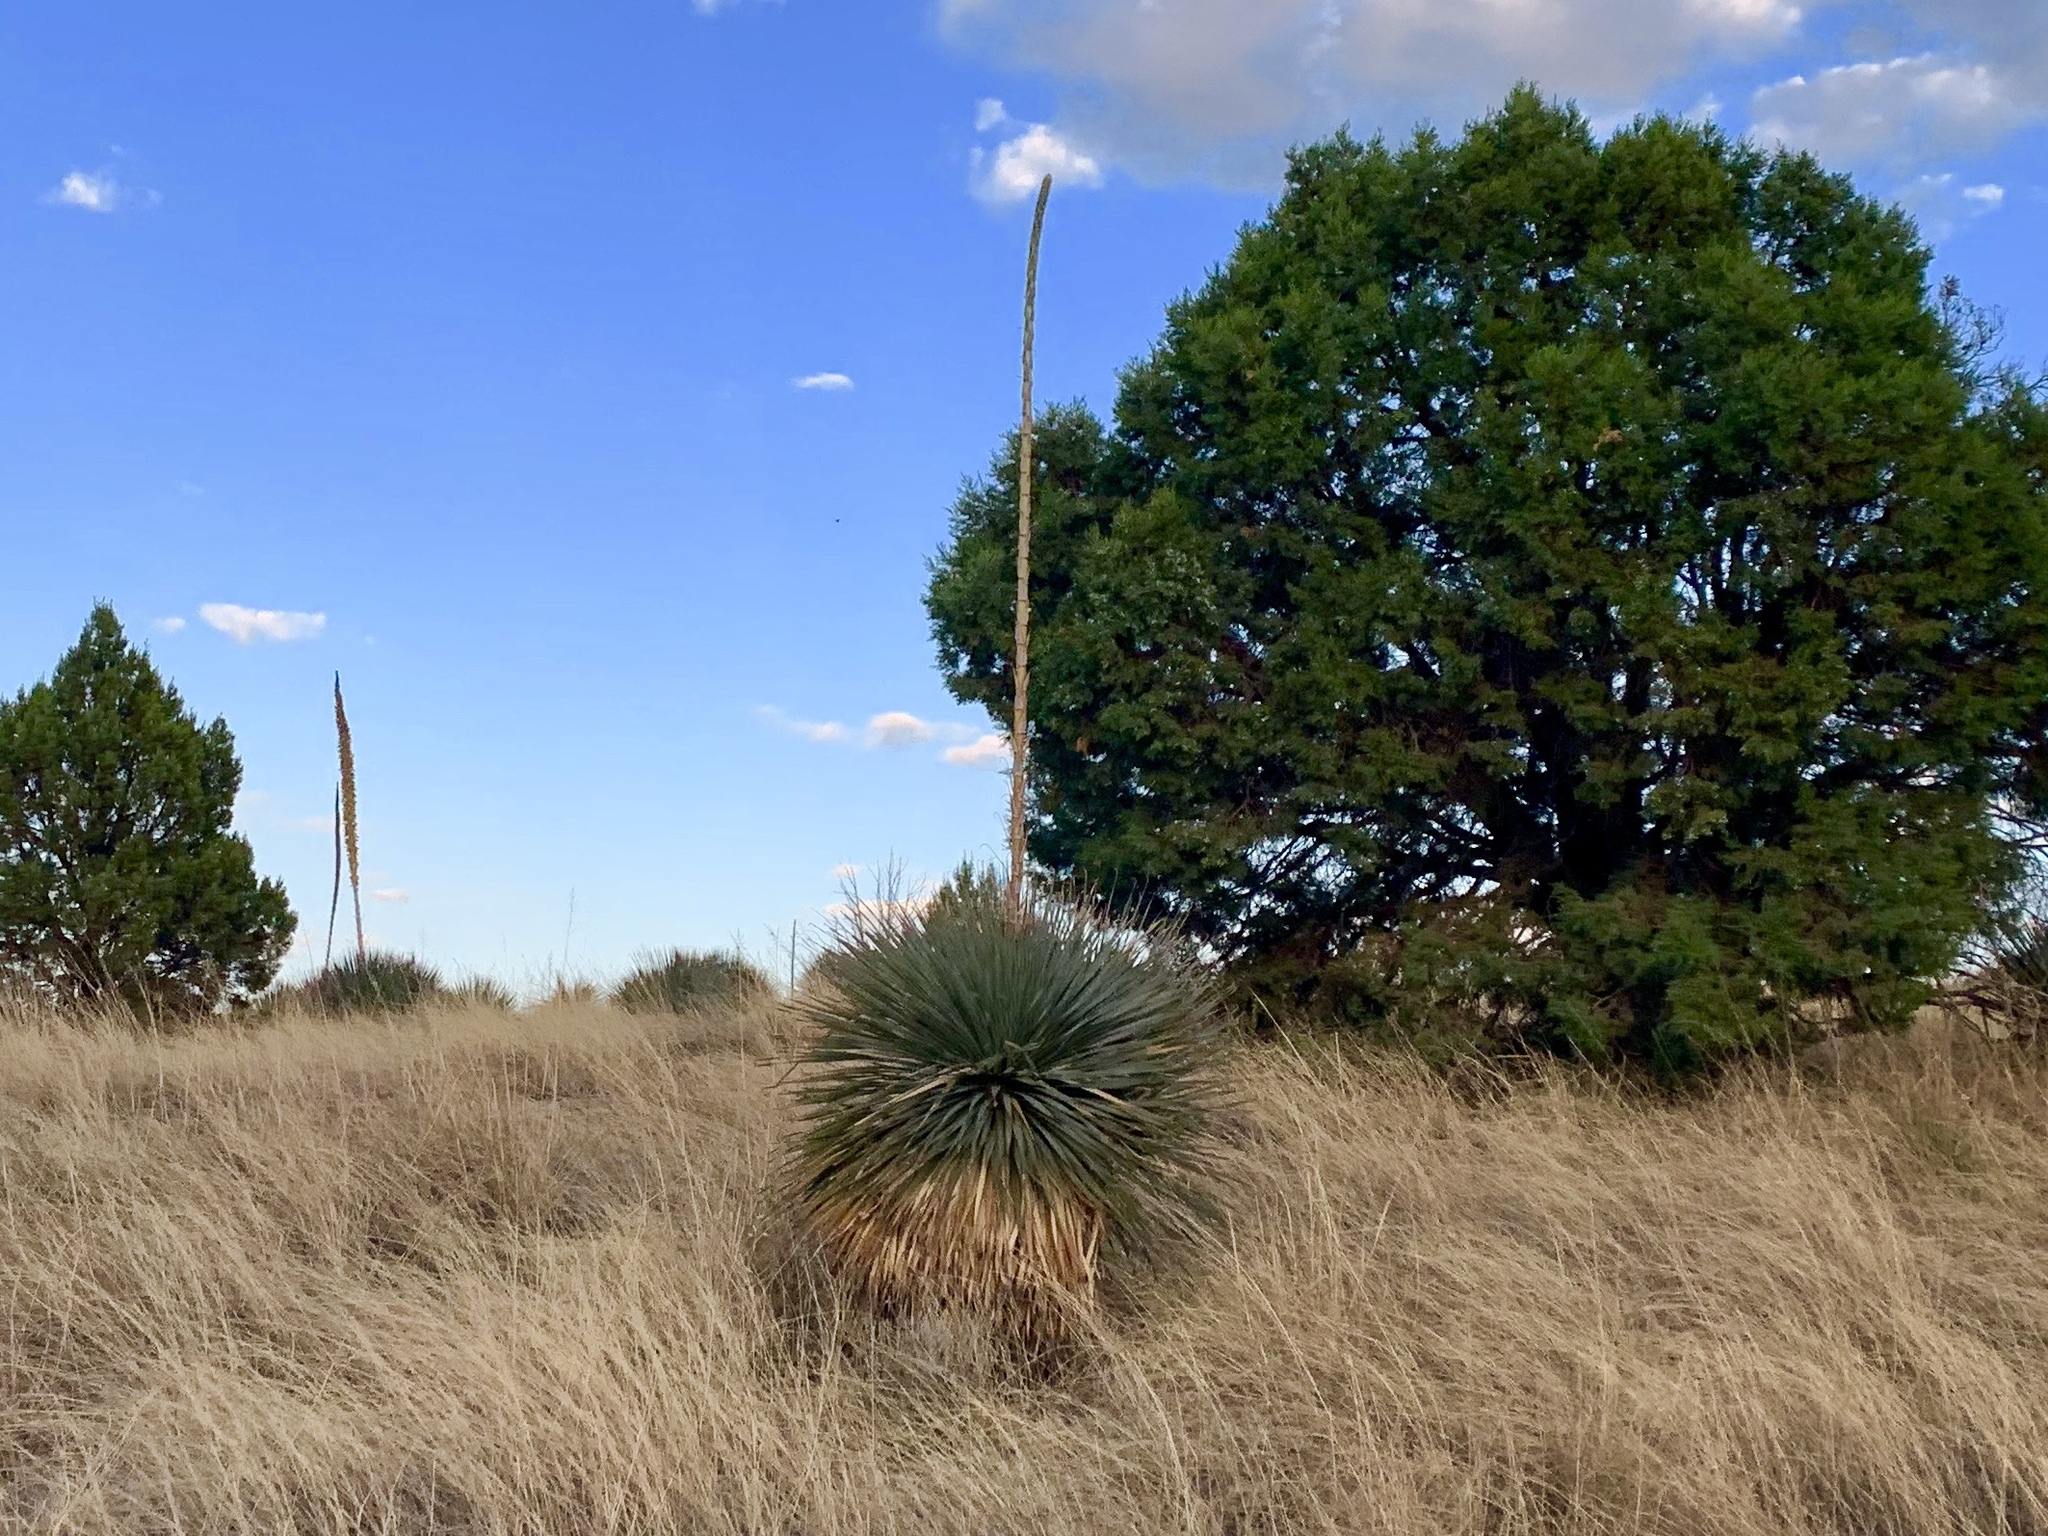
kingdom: Plantae
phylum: Tracheophyta
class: Liliopsida
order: Asparagales
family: Asparagaceae
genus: Dasylirion
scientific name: Dasylirion wheeleri
